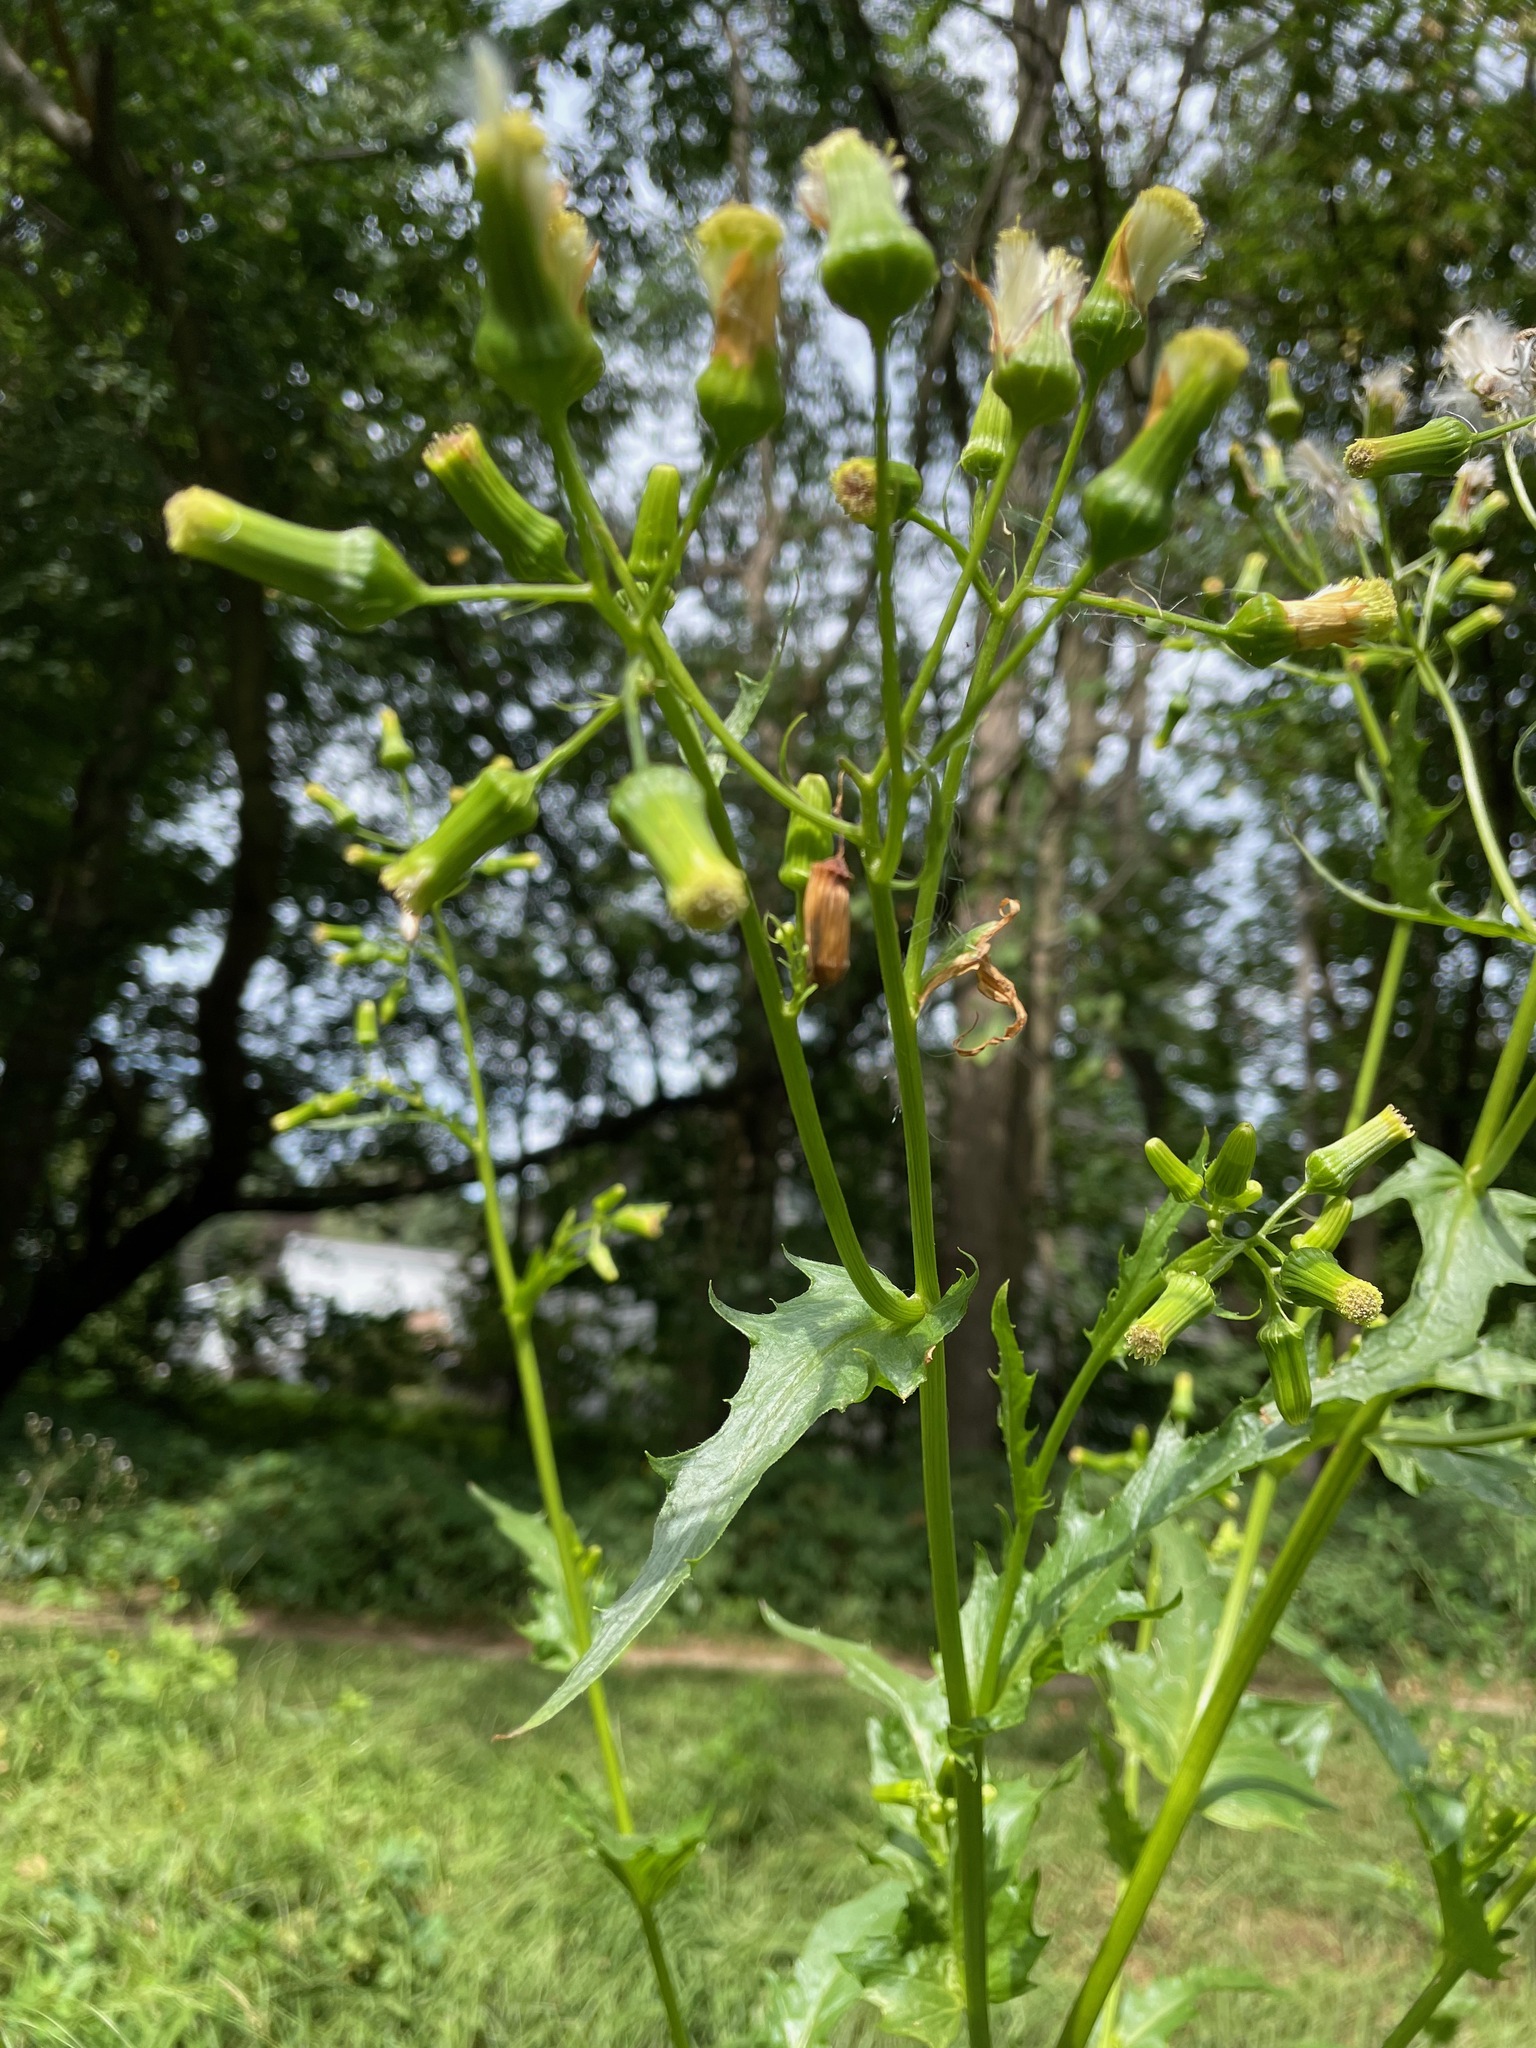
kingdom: Plantae
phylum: Tracheophyta
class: Magnoliopsida
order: Asterales
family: Asteraceae
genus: Erechtites
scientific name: Erechtites hieraciifolius
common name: American burnweed
